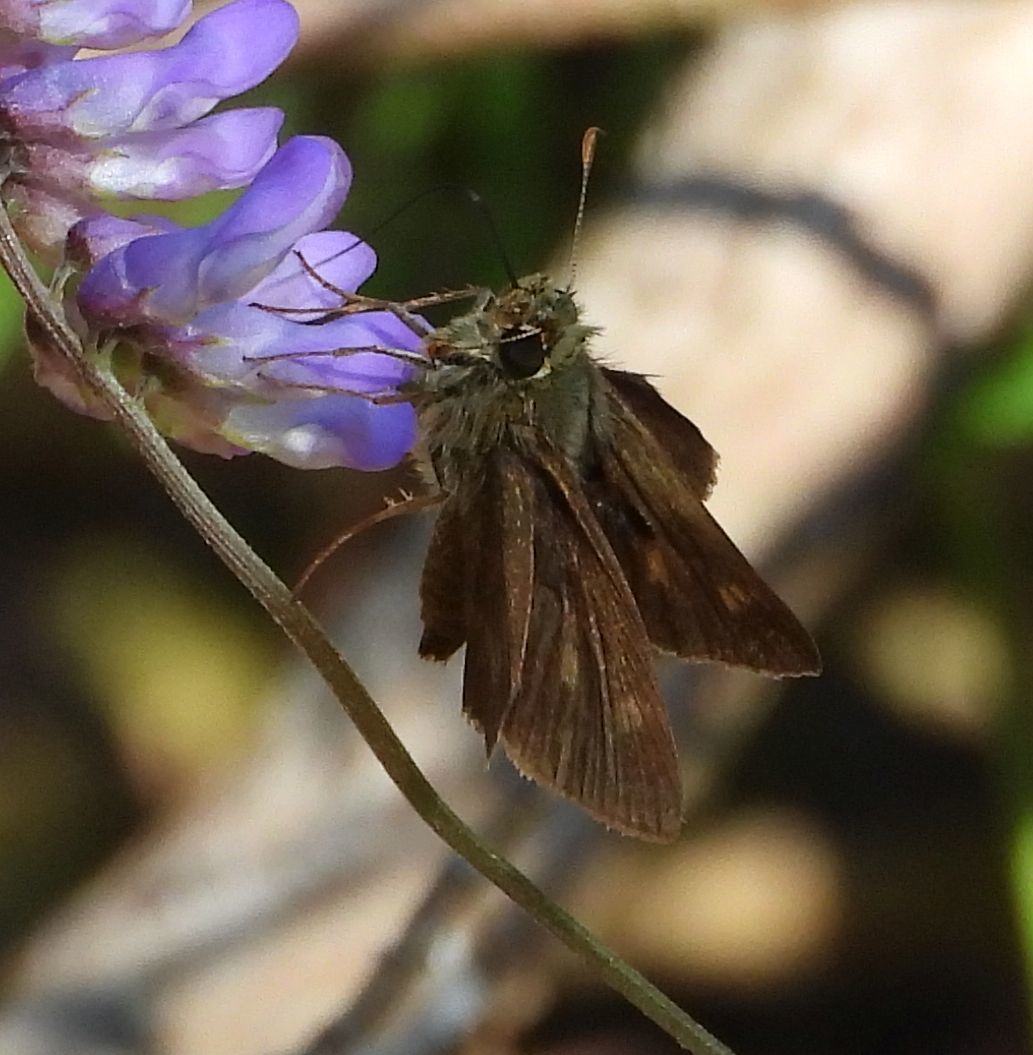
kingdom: Animalia
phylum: Arthropoda
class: Insecta
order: Lepidoptera
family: Hesperiidae
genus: Polites
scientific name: Polites egeremet
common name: Northern broken-dash
